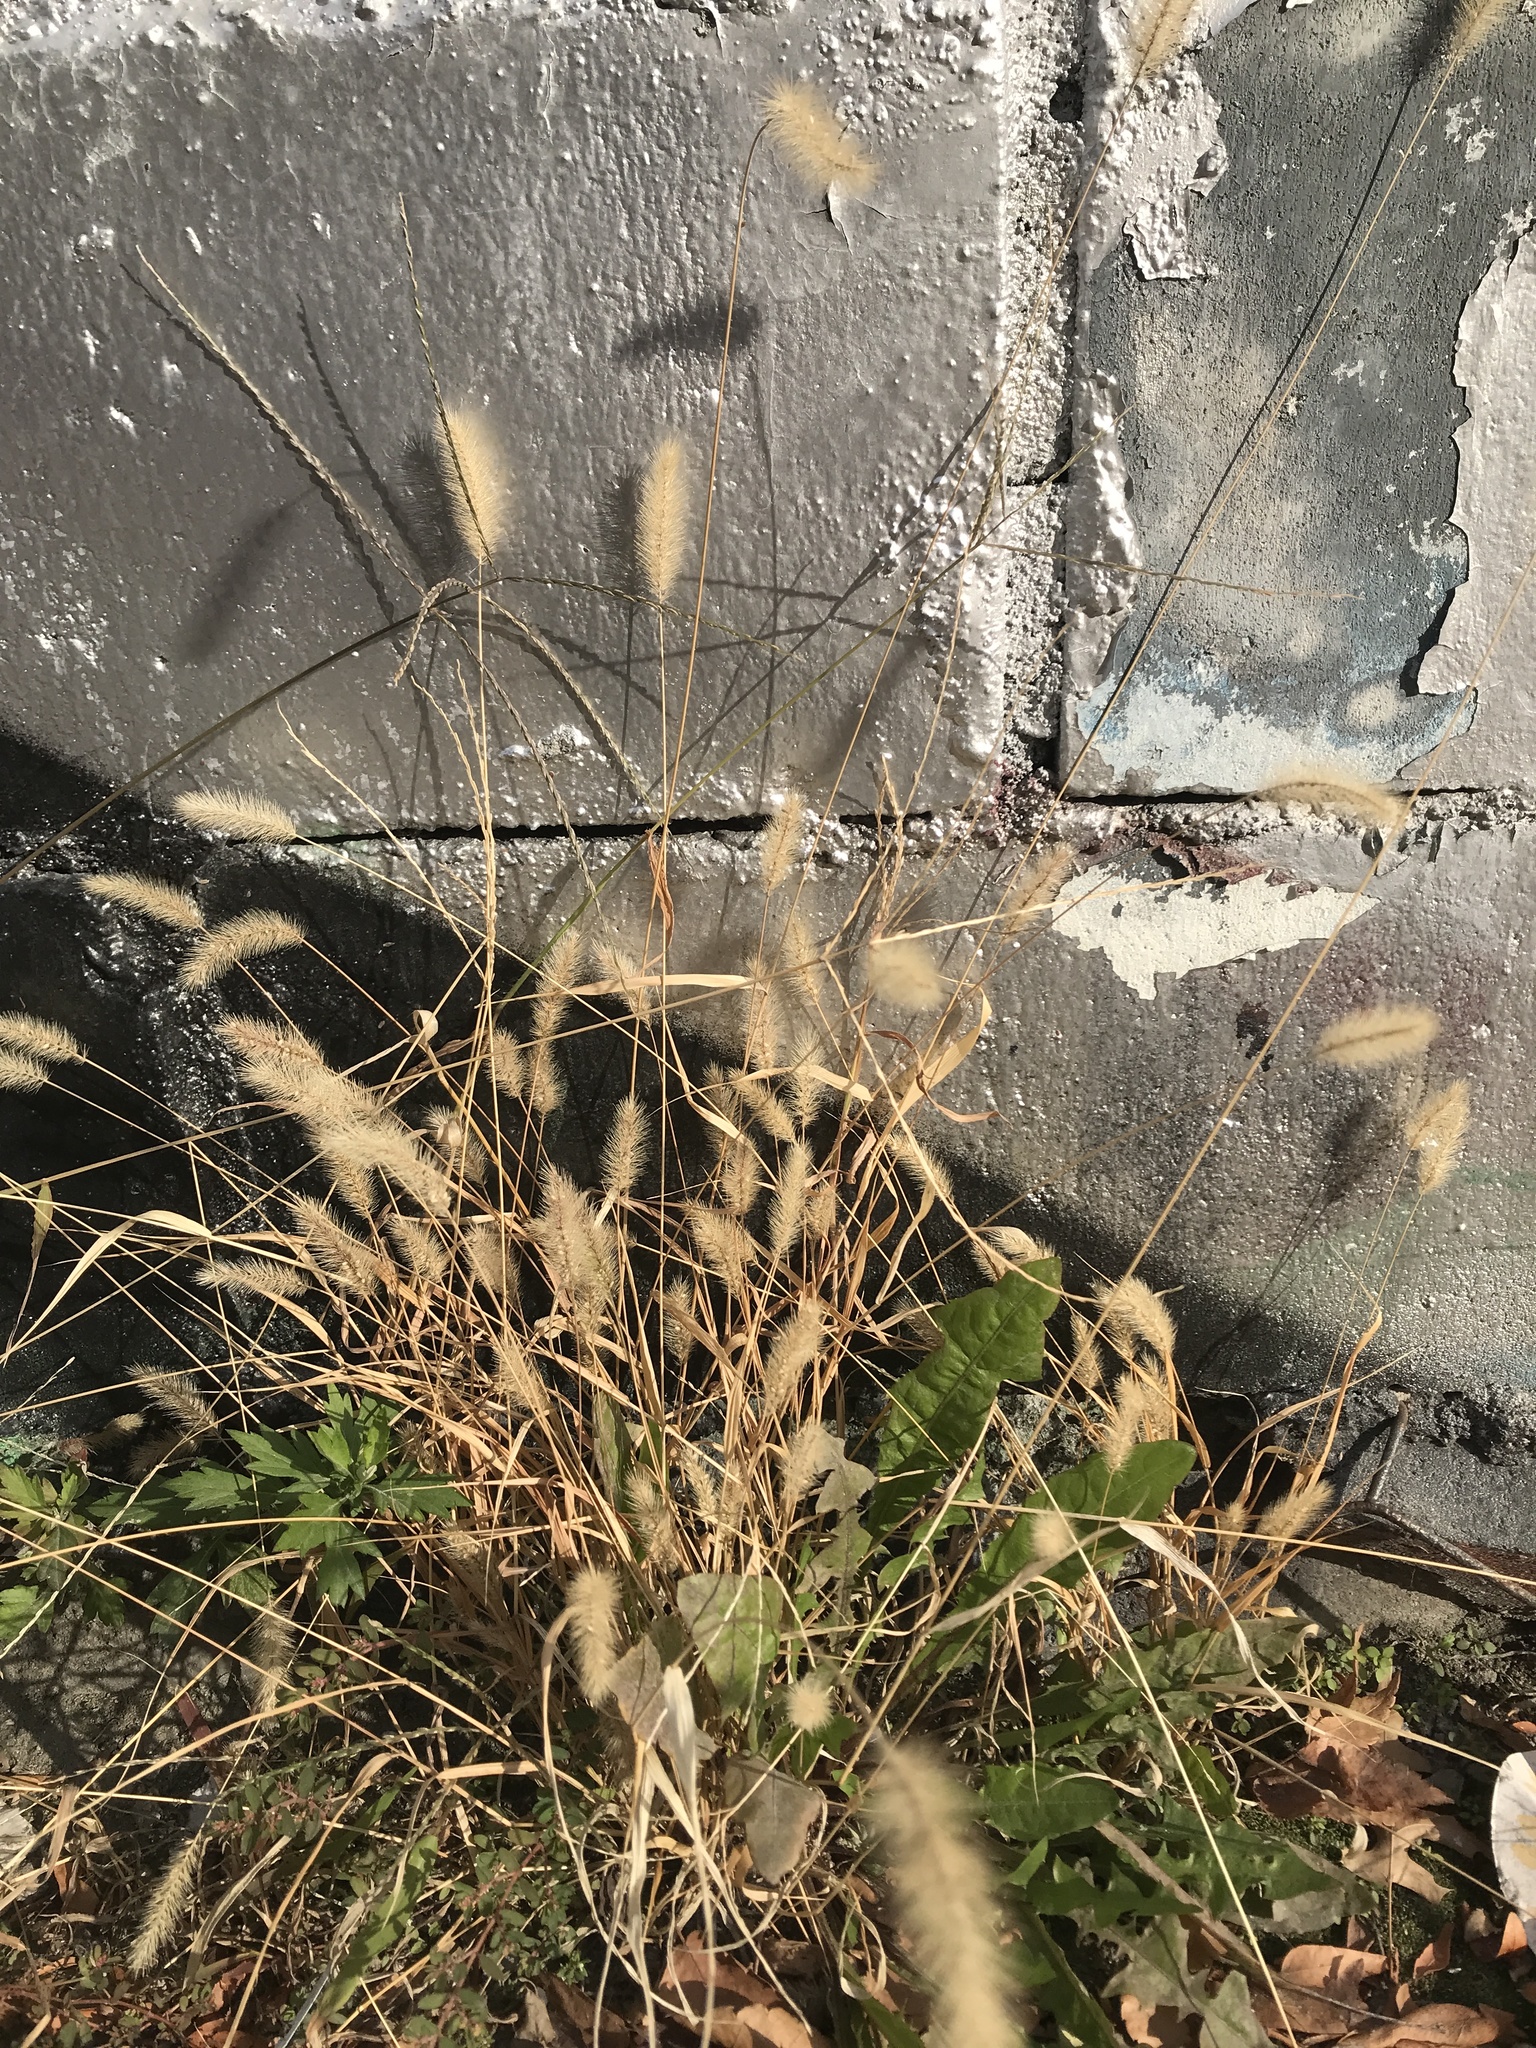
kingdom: Plantae
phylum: Tracheophyta
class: Liliopsida
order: Poales
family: Poaceae
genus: Setaria
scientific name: Setaria viridis
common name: Green bristlegrass
